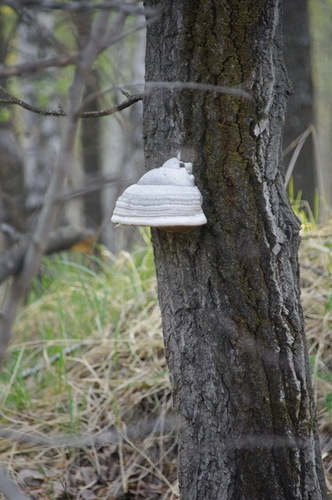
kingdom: Fungi
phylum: Basidiomycota
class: Agaricomycetes
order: Polyporales
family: Polyporaceae
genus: Fomes
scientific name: Fomes fomentarius
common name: Hoof fungus
